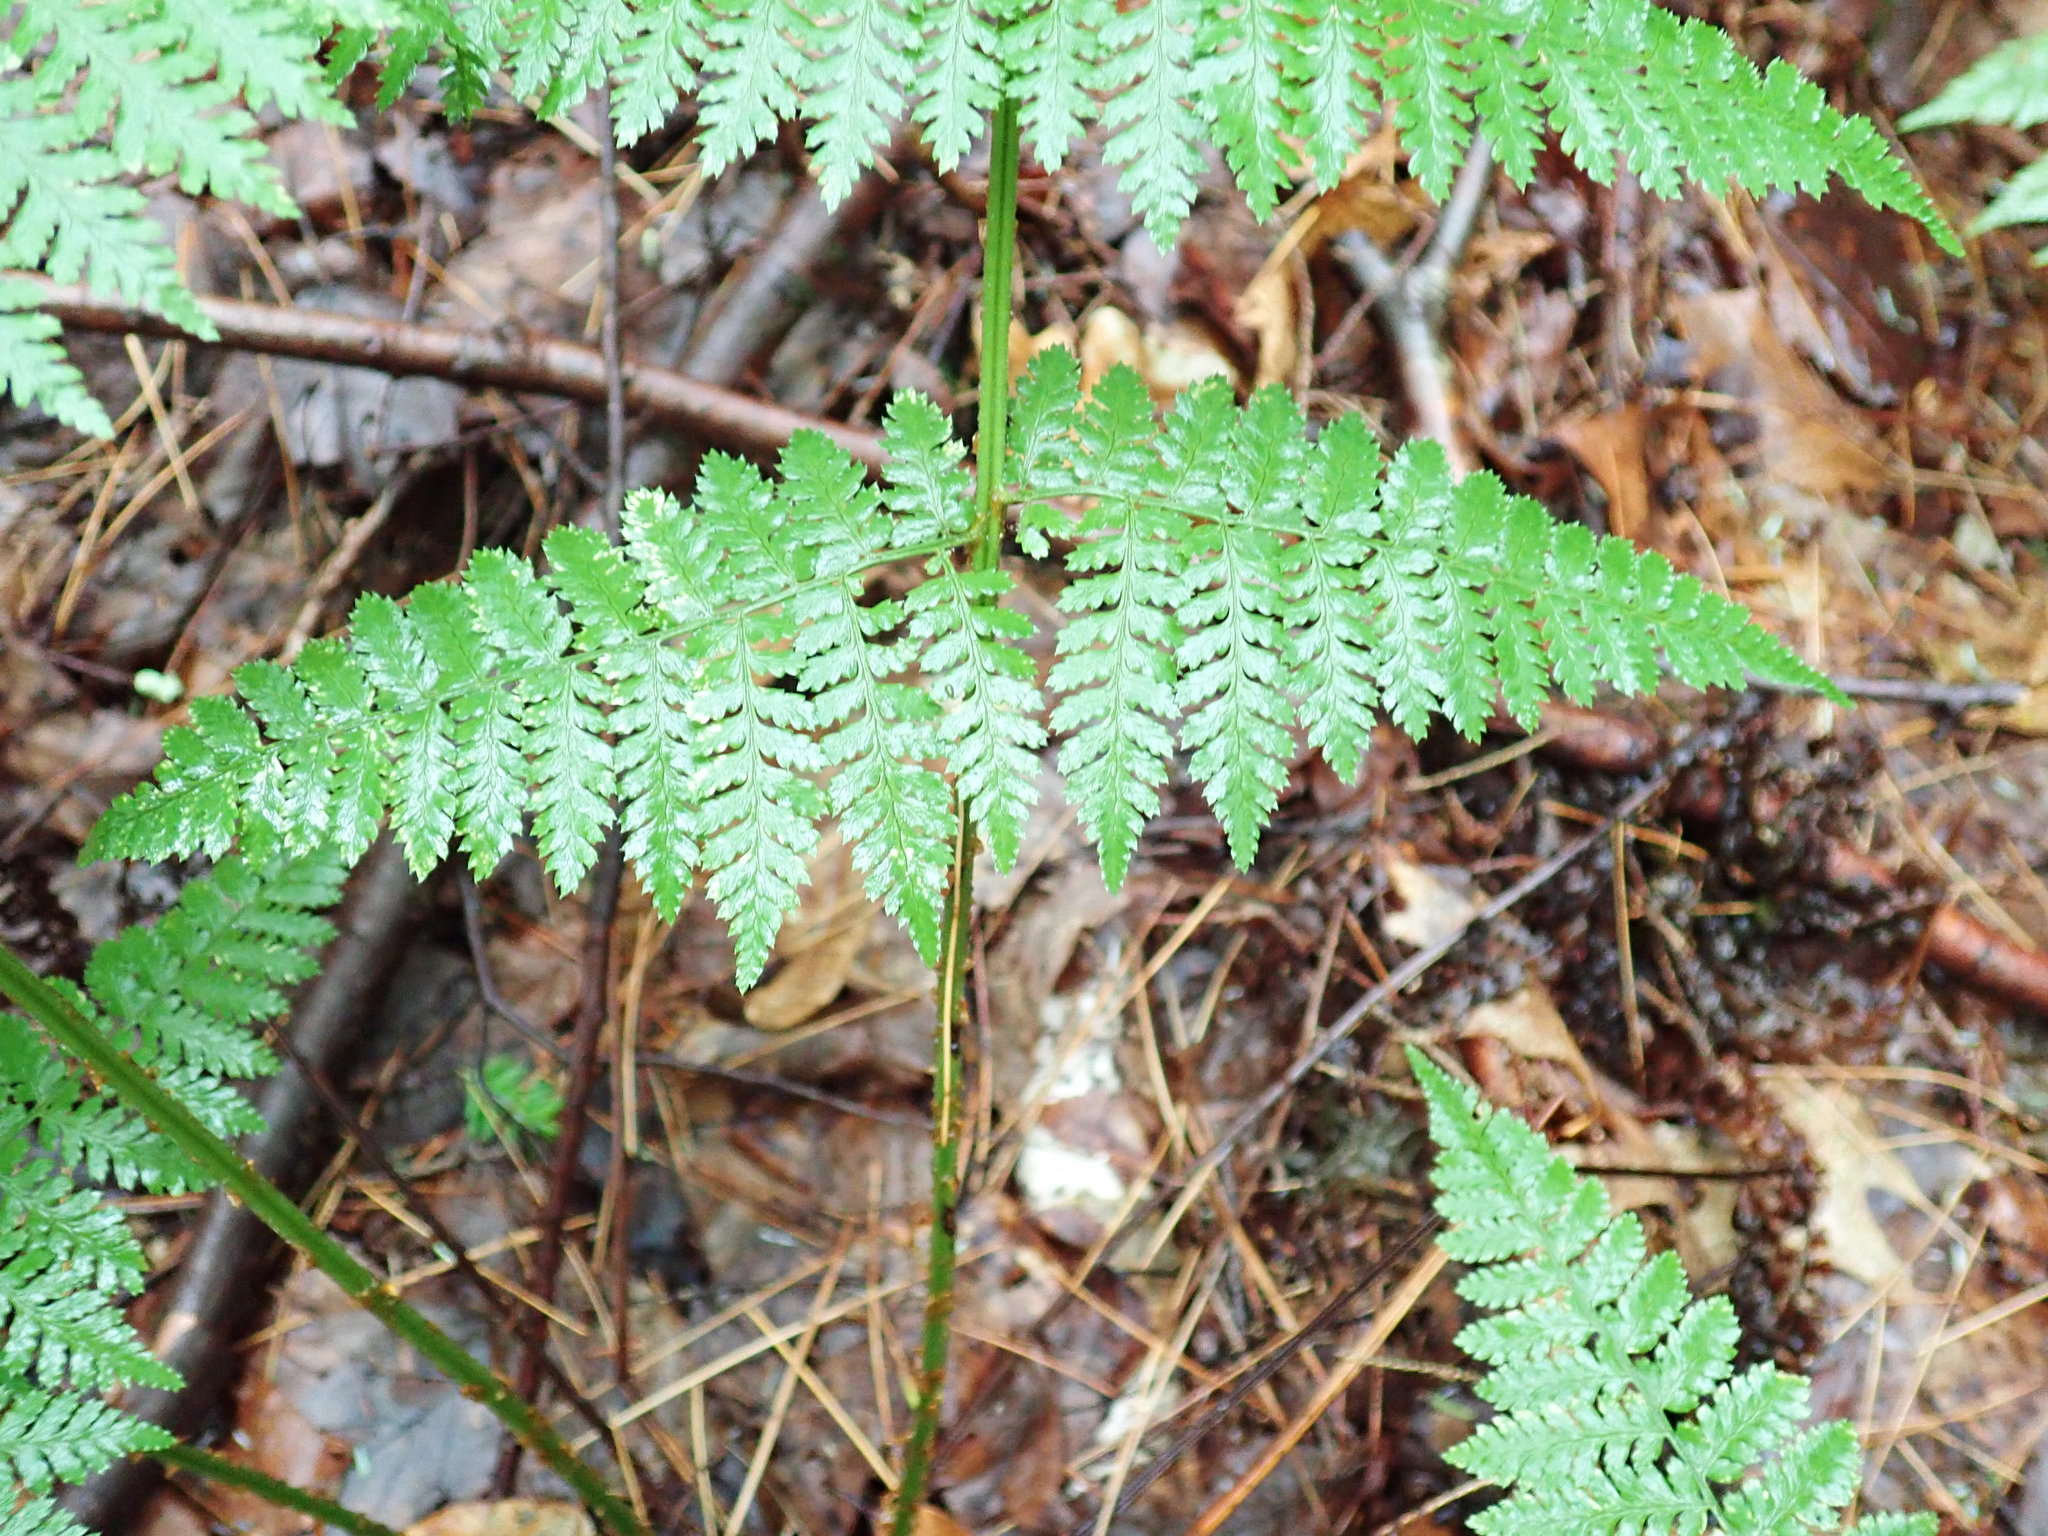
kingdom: Plantae
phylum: Tracheophyta
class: Polypodiopsida
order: Polypodiales
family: Dryopteridaceae
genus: Dryopteris
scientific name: Dryopteris intermedia
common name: Evergreen wood fern
